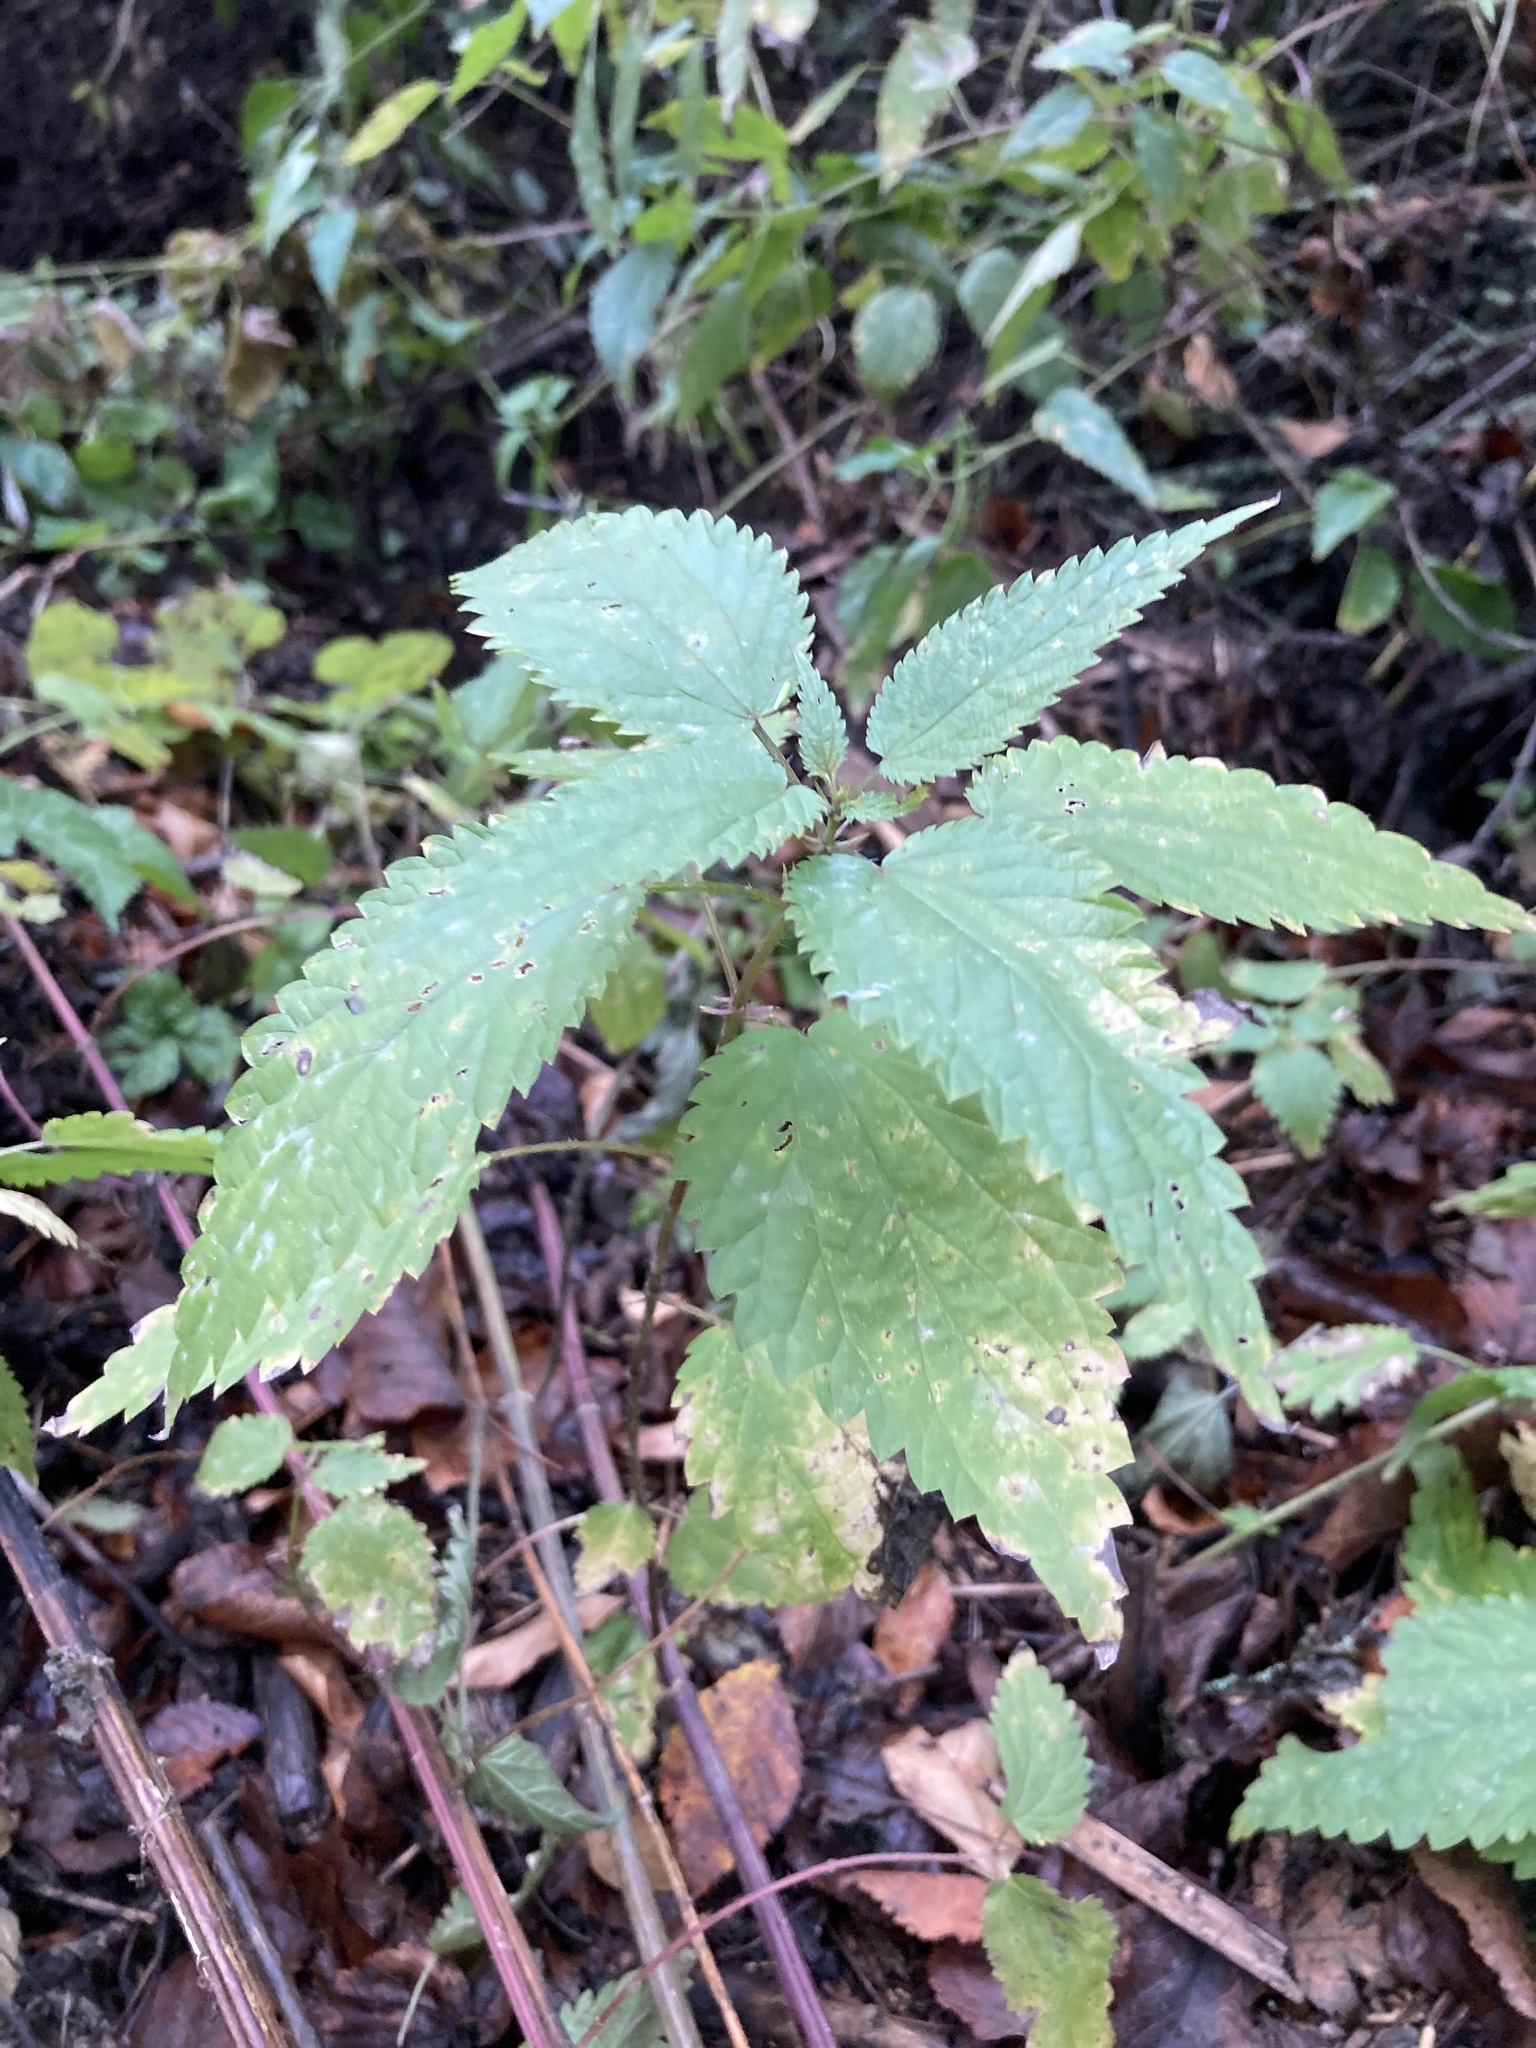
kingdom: Plantae
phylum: Tracheophyta
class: Magnoliopsida
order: Rosales
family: Urticaceae
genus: Urtica
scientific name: Urtica dioica
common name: Common nettle
